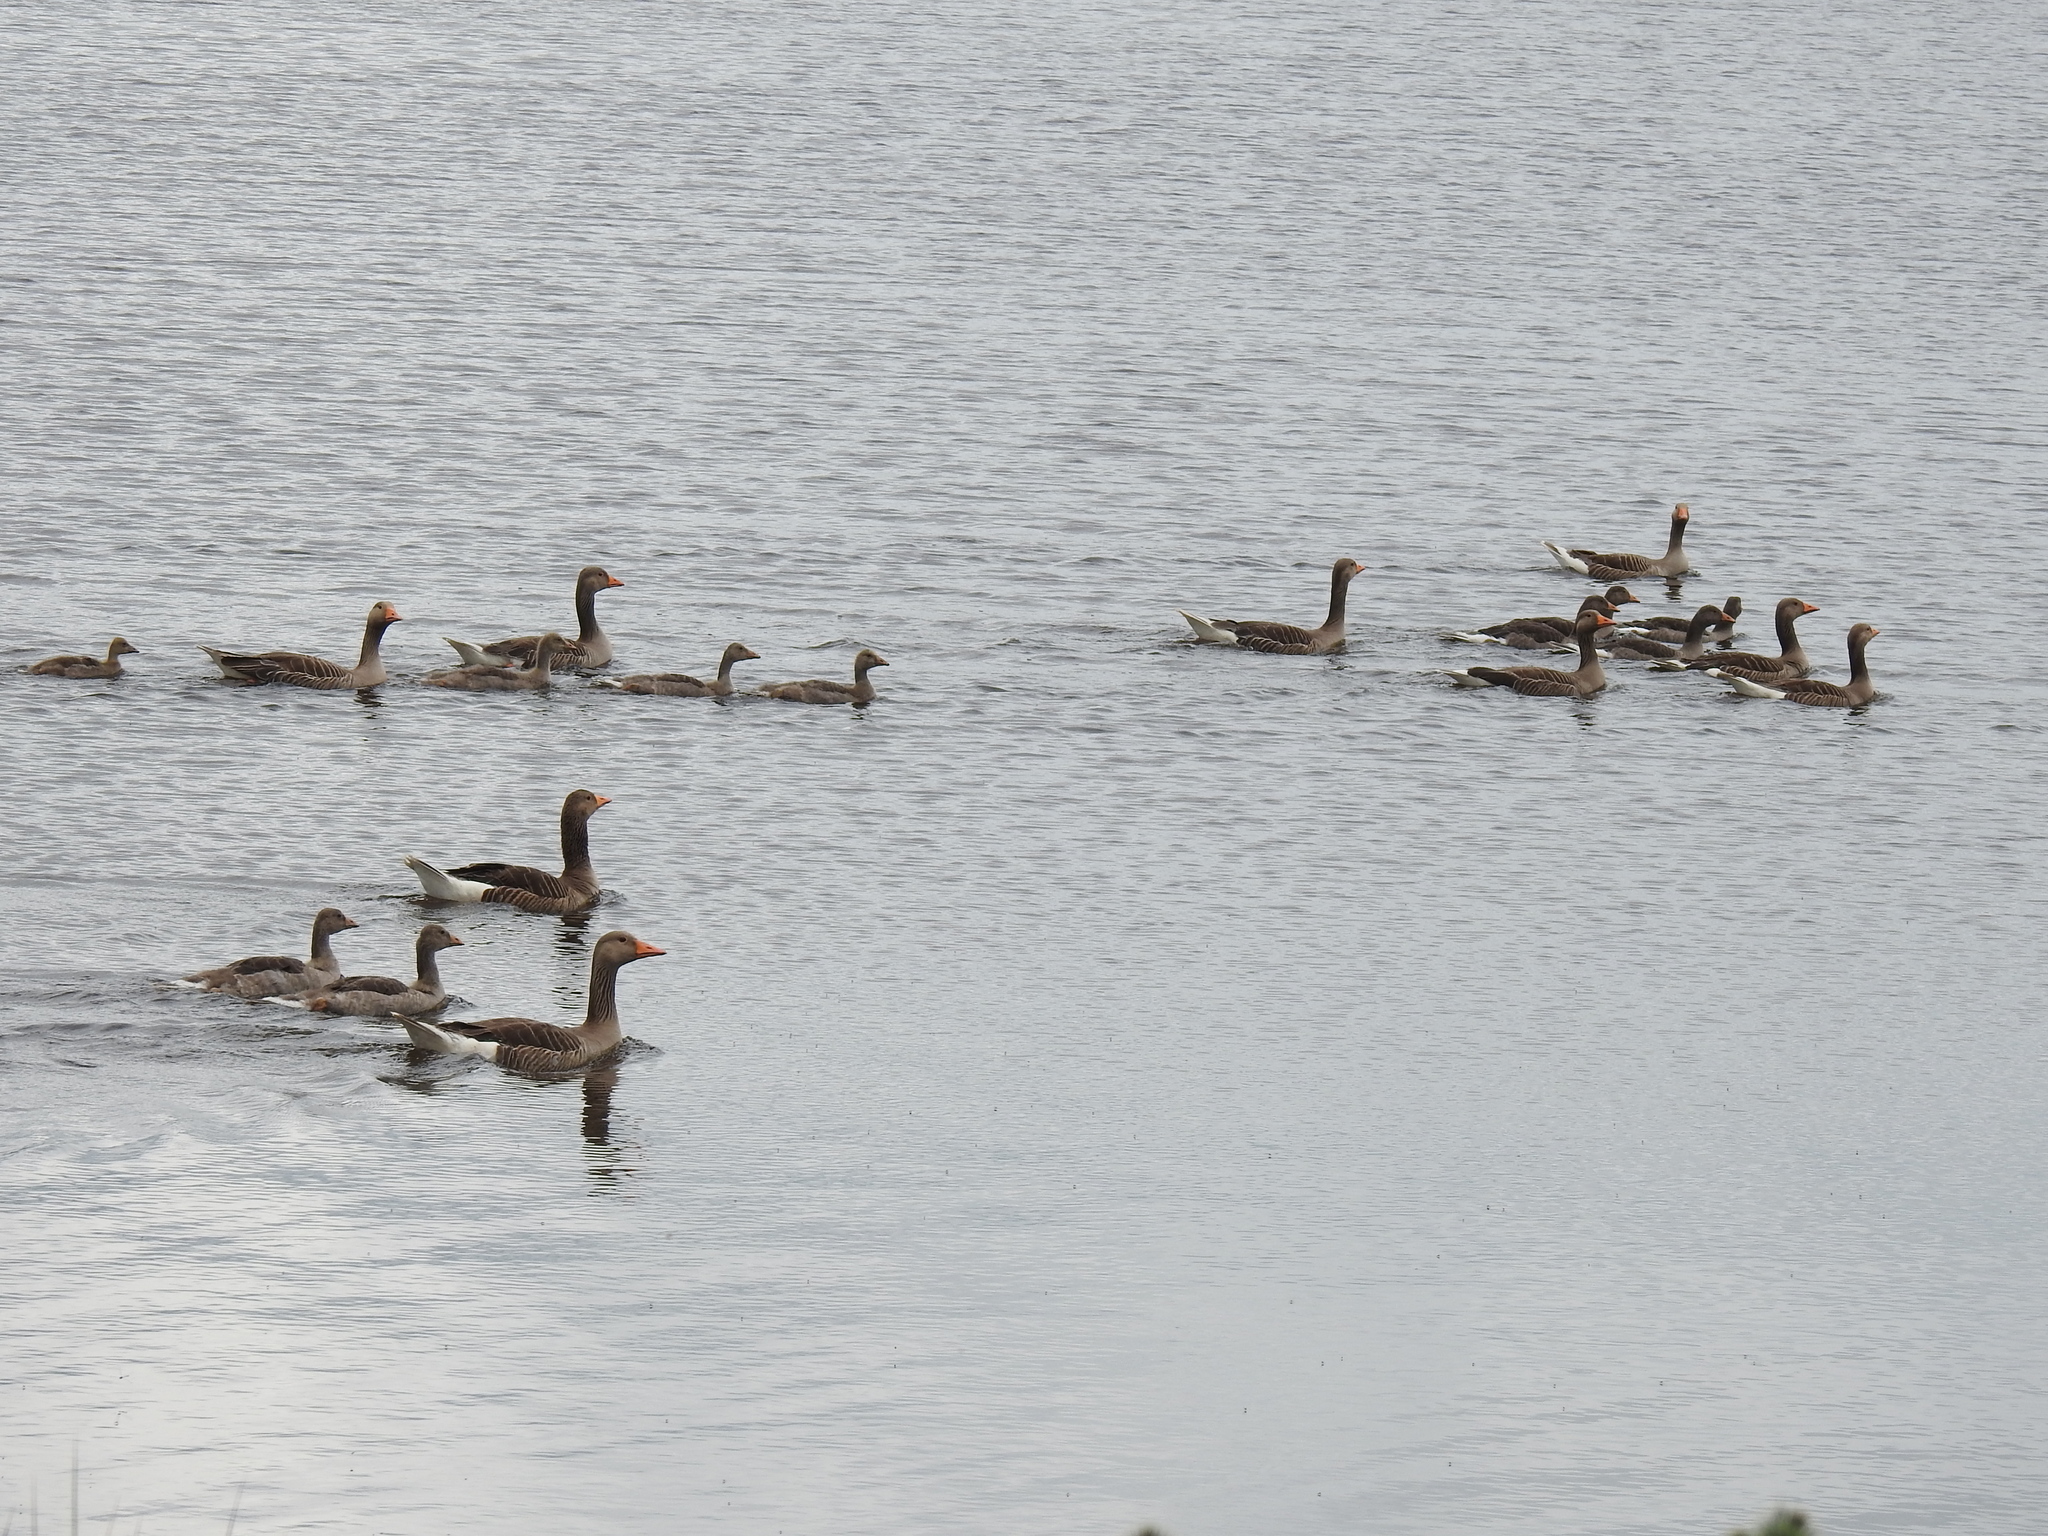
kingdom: Animalia
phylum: Chordata
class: Aves
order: Anseriformes
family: Anatidae
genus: Anser
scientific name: Anser anser
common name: Greylag goose
